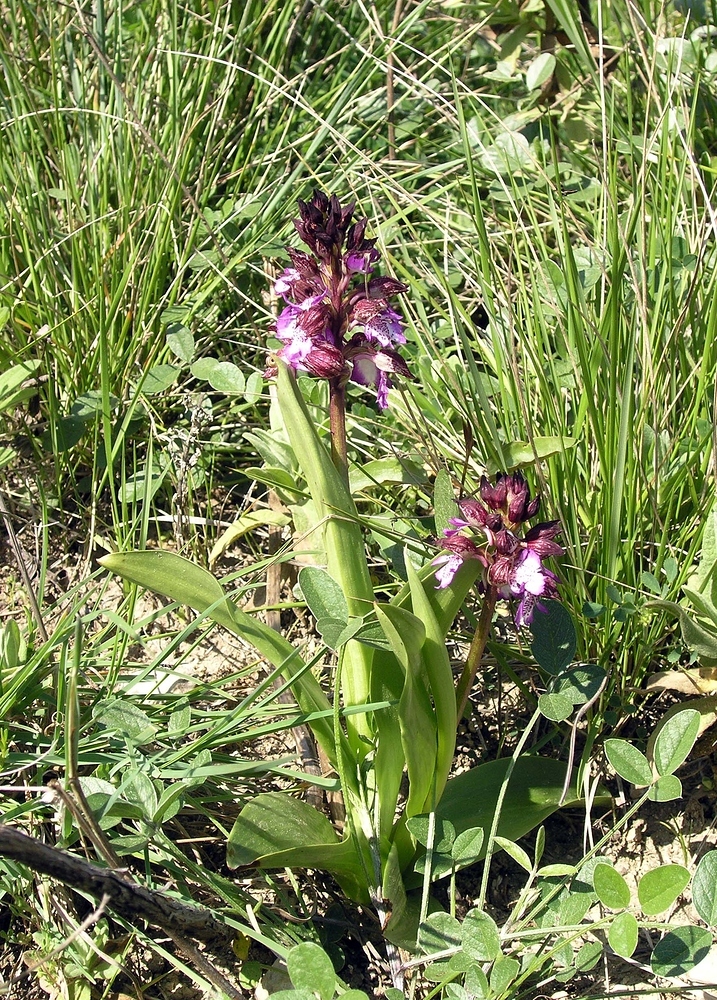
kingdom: Plantae
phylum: Tracheophyta
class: Liliopsida
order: Asparagales
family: Orchidaceae
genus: Orchis
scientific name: Orchis purpurea
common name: Lady orchid
